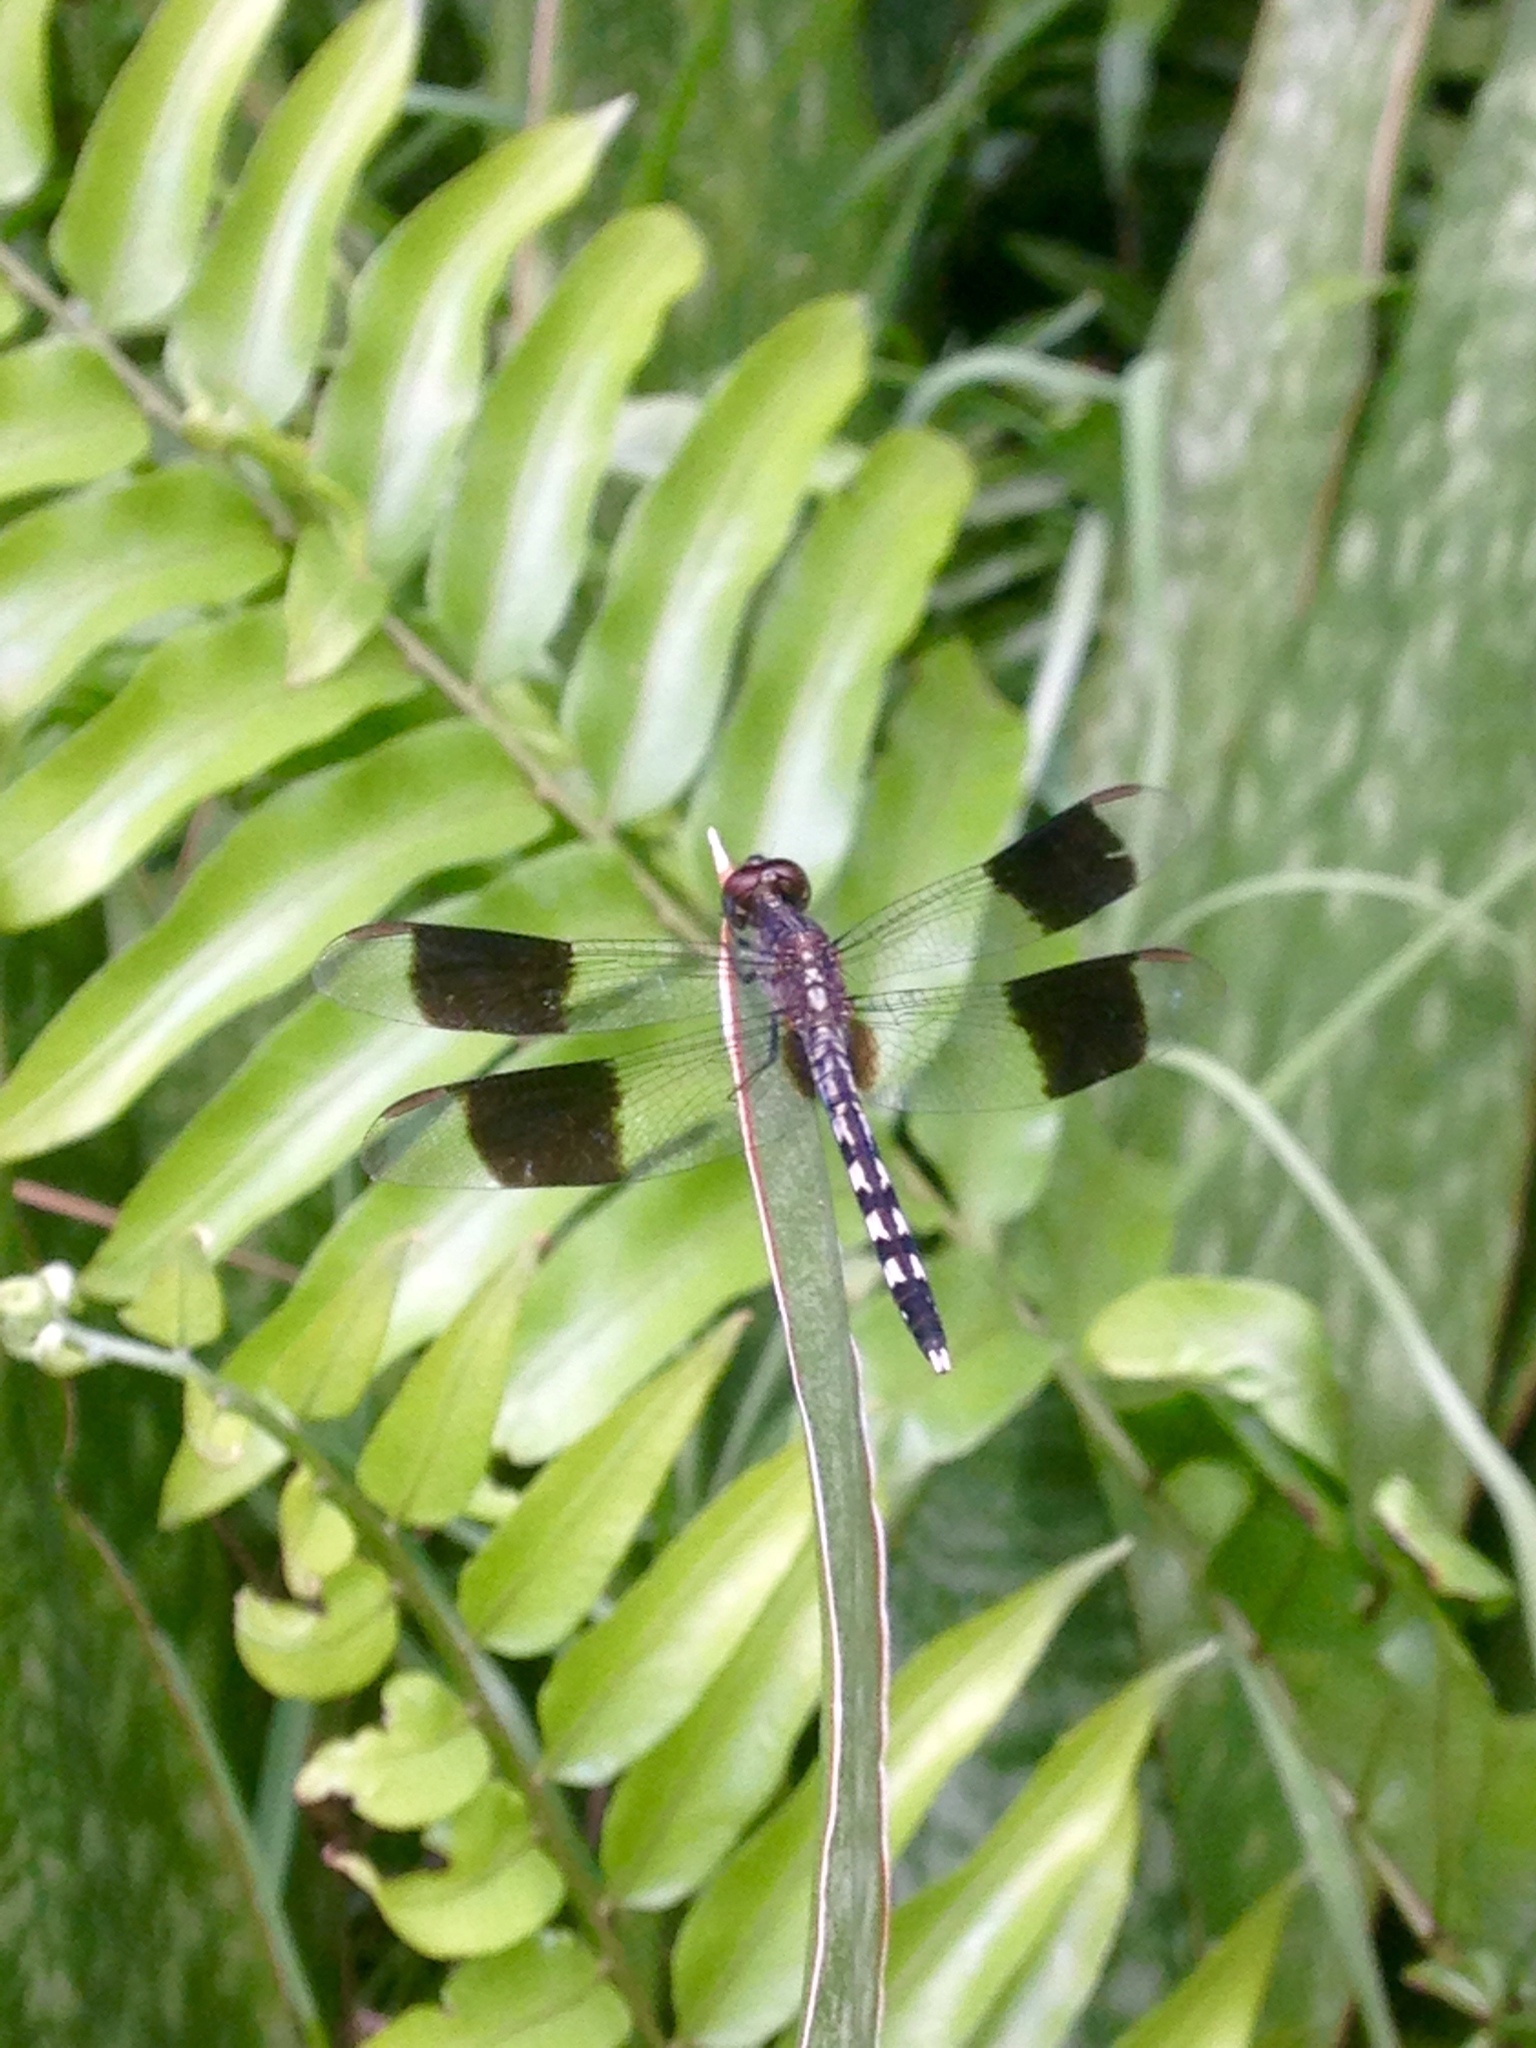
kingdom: Animalia
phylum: Arthropoda
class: Insecta
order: Odonata
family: Libellulidae
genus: Erythrodiplax
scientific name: Erythrodiplax umbrata
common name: Band-winged dragonlet
